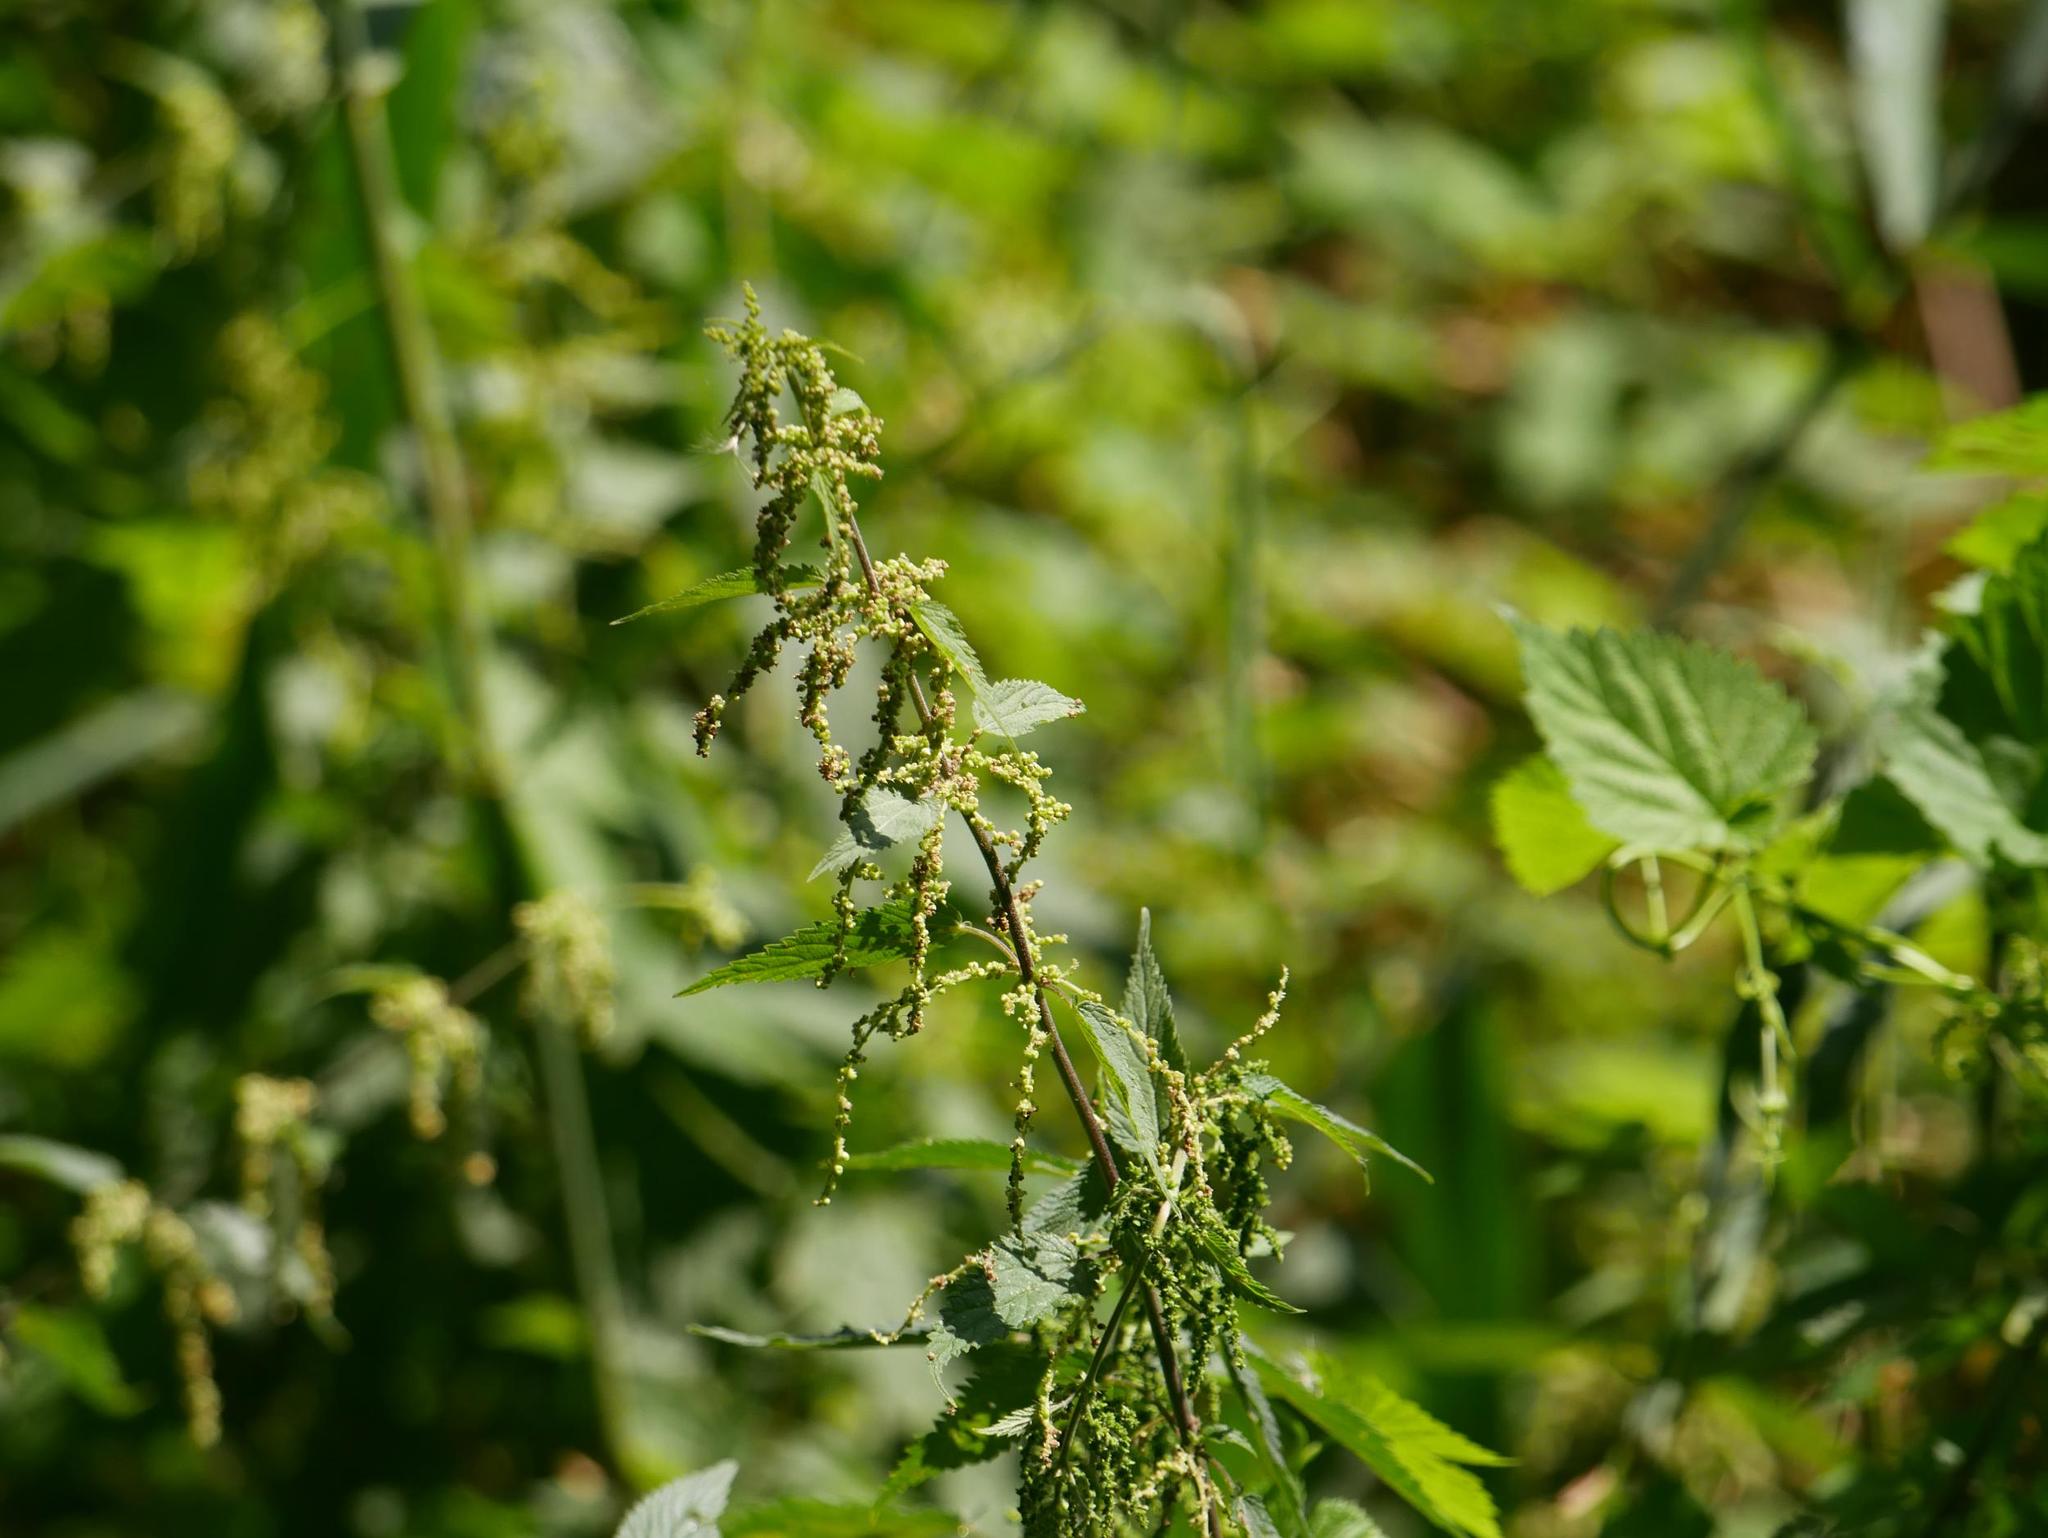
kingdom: Plantae
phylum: Tracheophyta
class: Magnoliopsida
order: Rosales
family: Urticaceae
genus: Urtica
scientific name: Urtica dioica
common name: Common nettle
